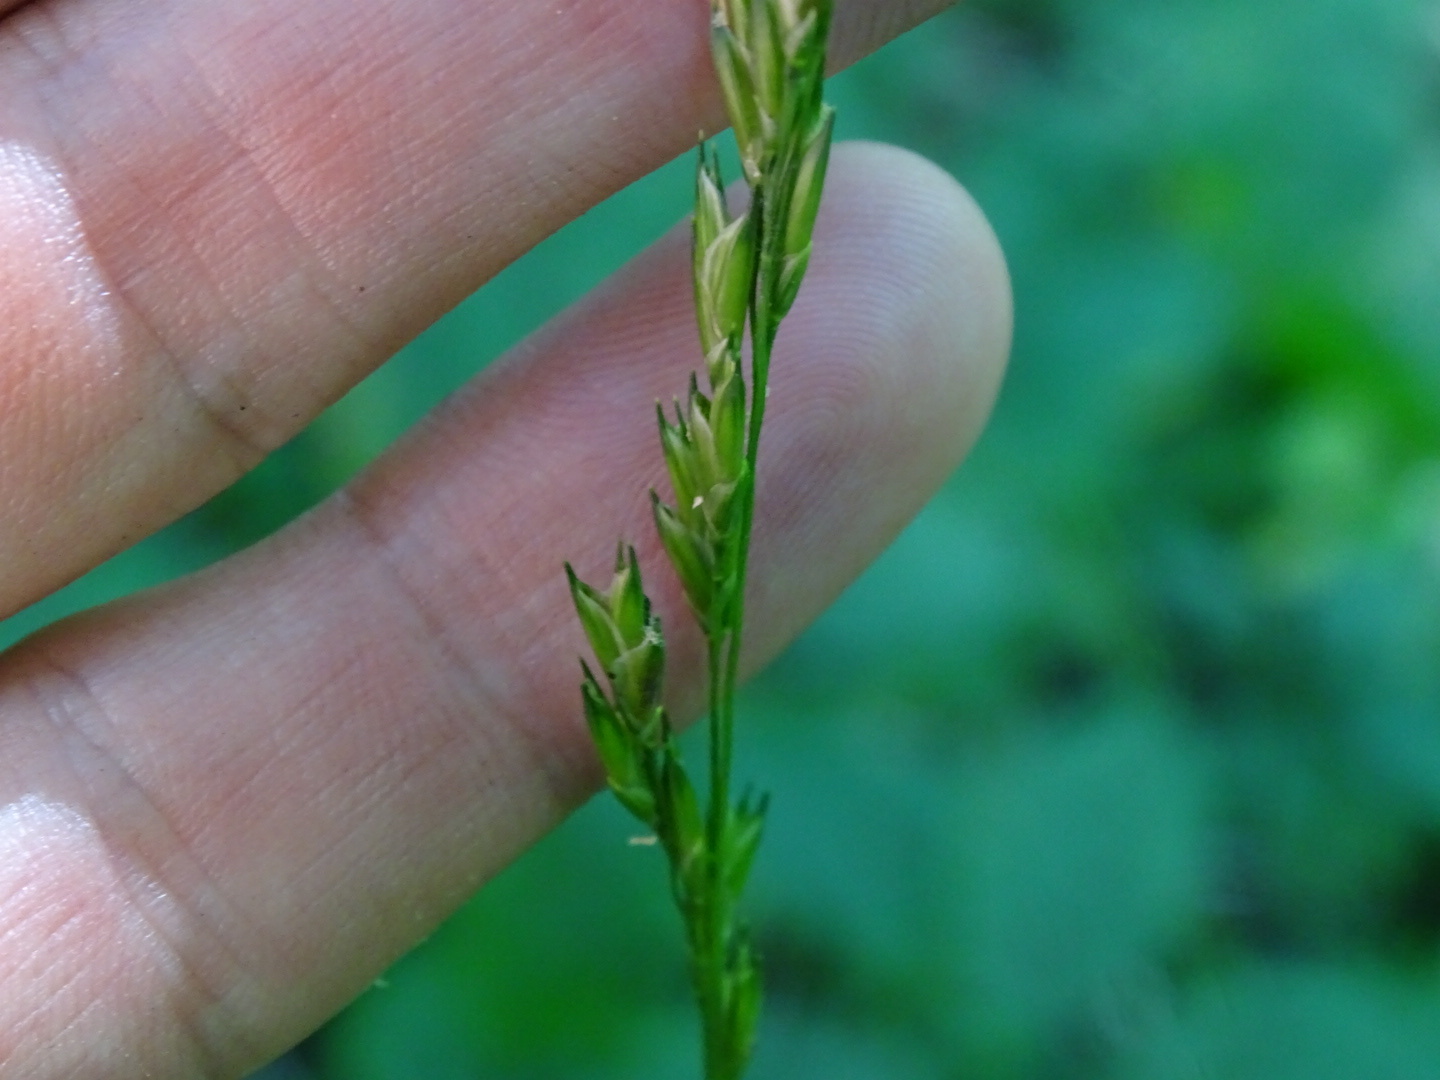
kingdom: Plantae
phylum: Tracheophyta
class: Liliopsida
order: Poales
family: Poaceae
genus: Diarrhena
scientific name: Diarrhena obovata
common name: Beakgrass
